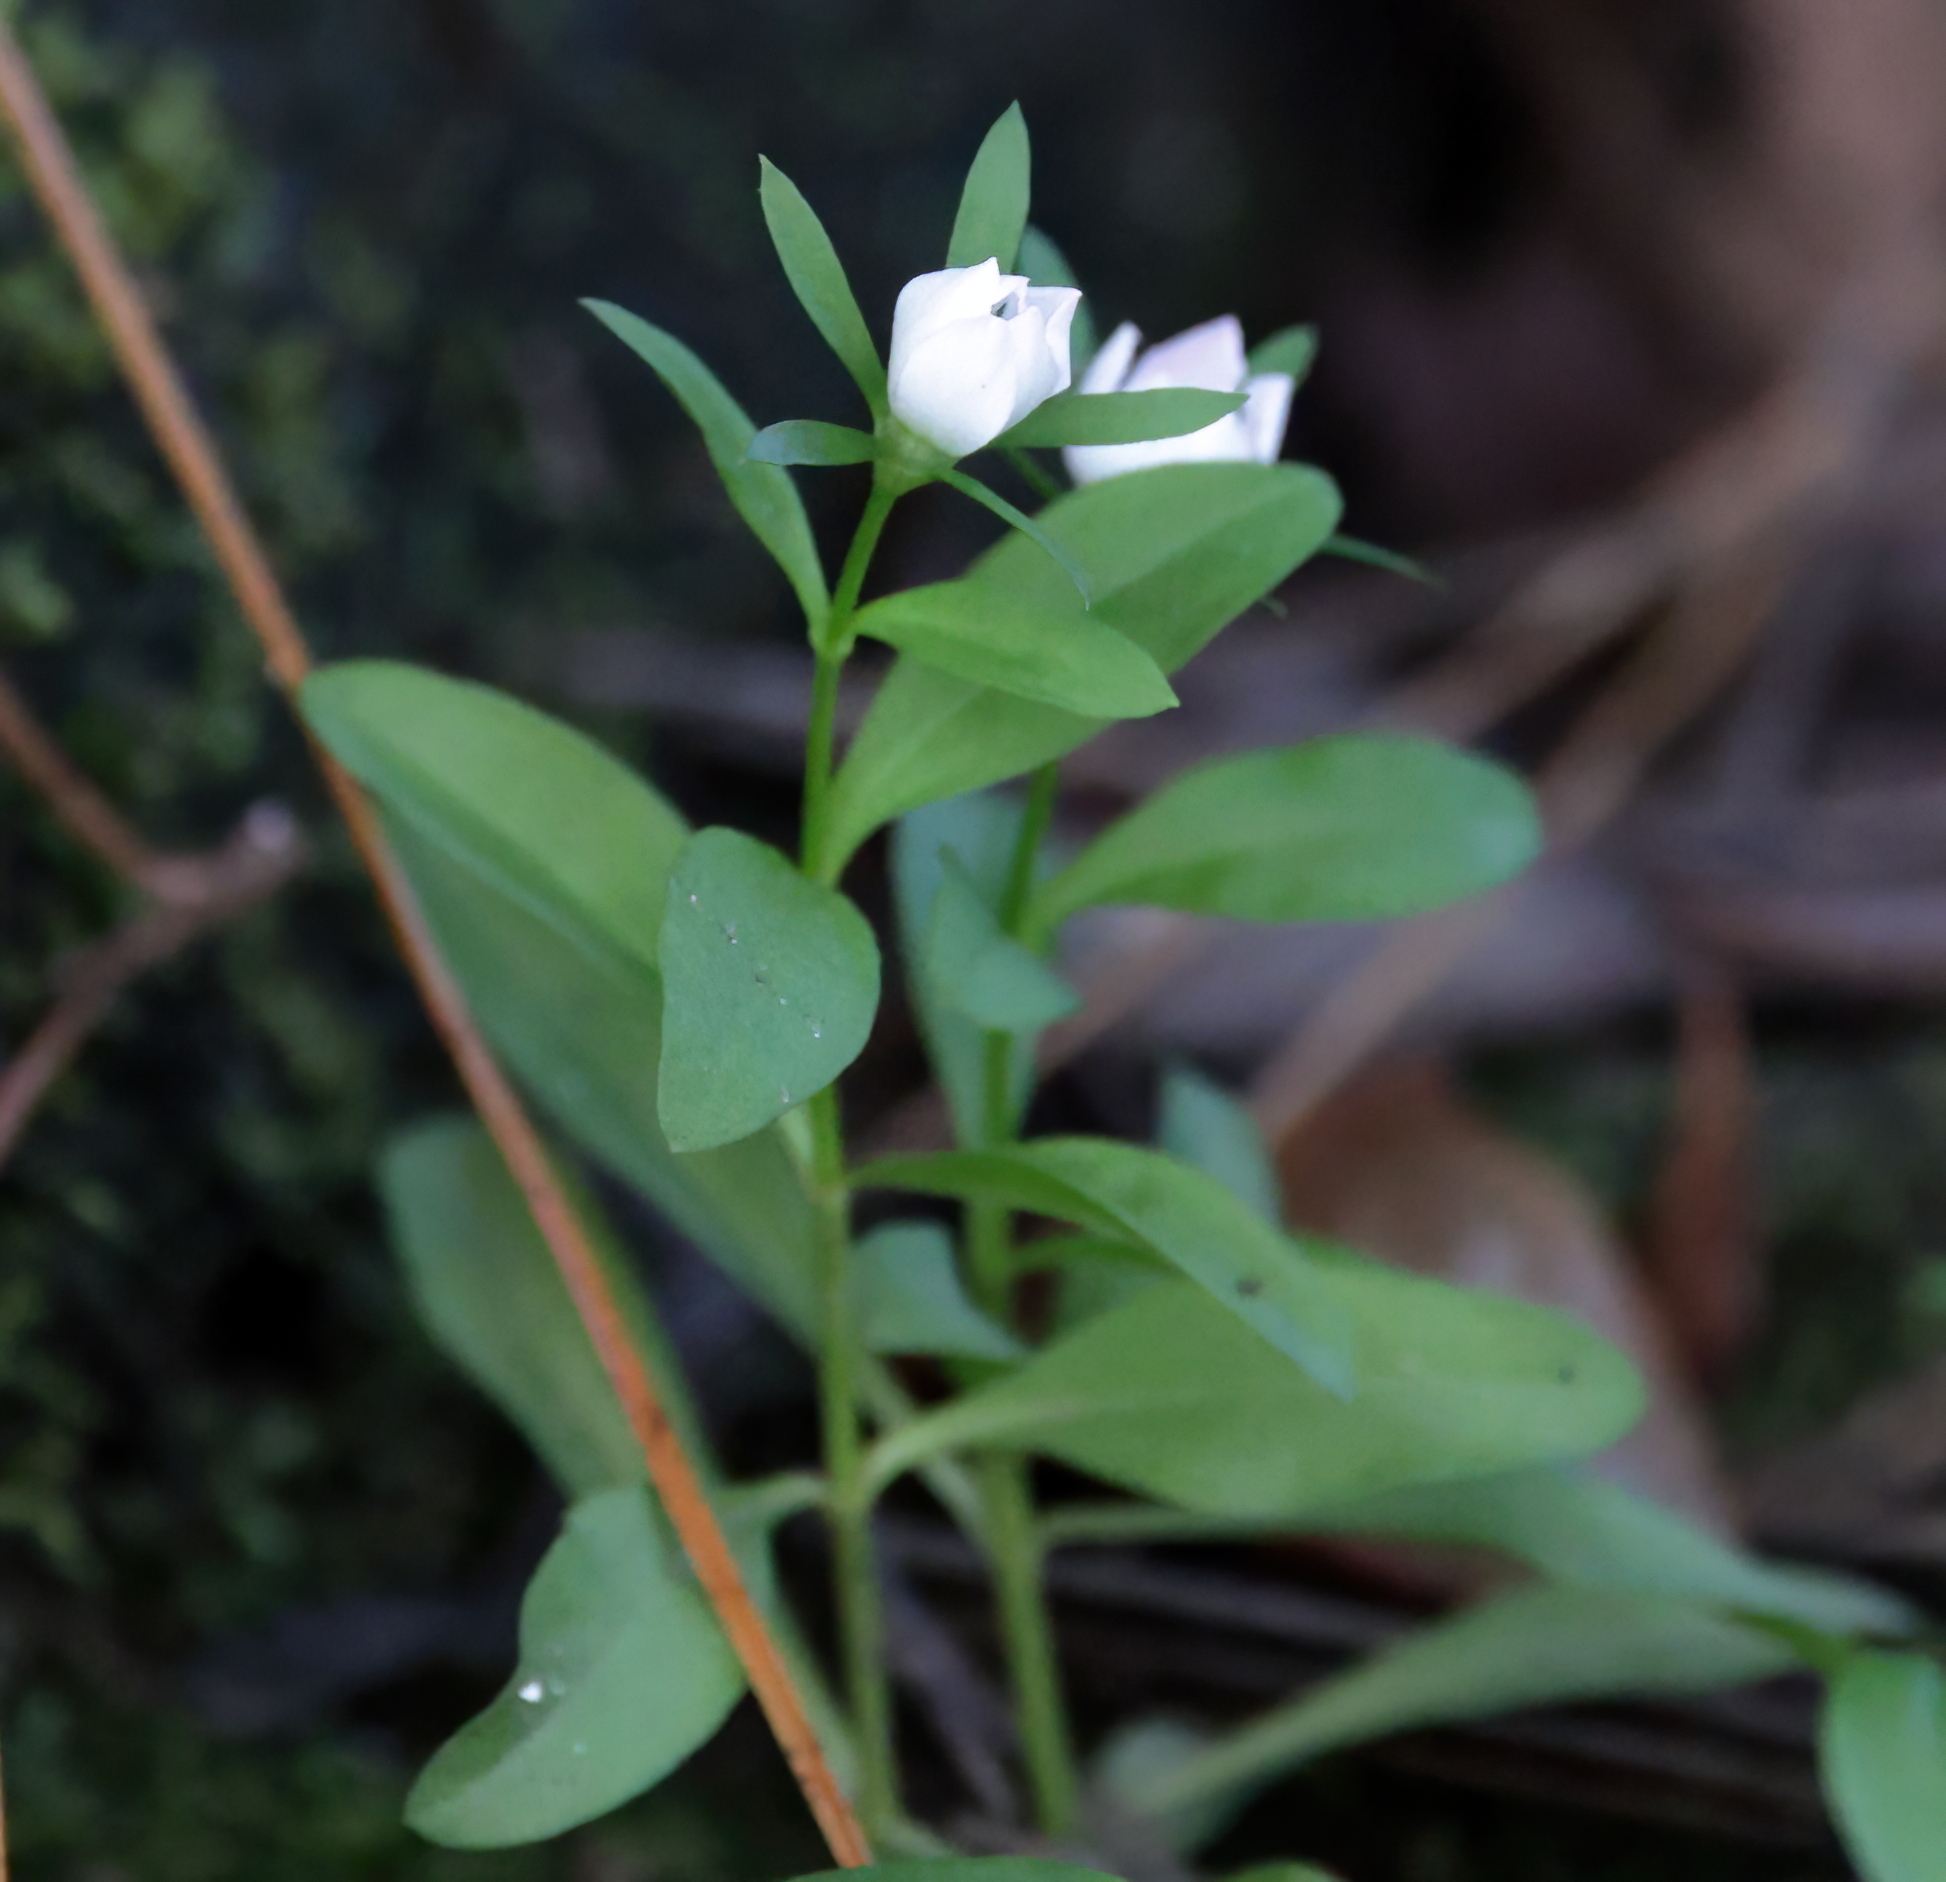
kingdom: Plantae
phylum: Tracheophyta
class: Magnoliopsida
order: Gentianales
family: Gentianaceae
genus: Sabatia
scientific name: Sabatia calycina
